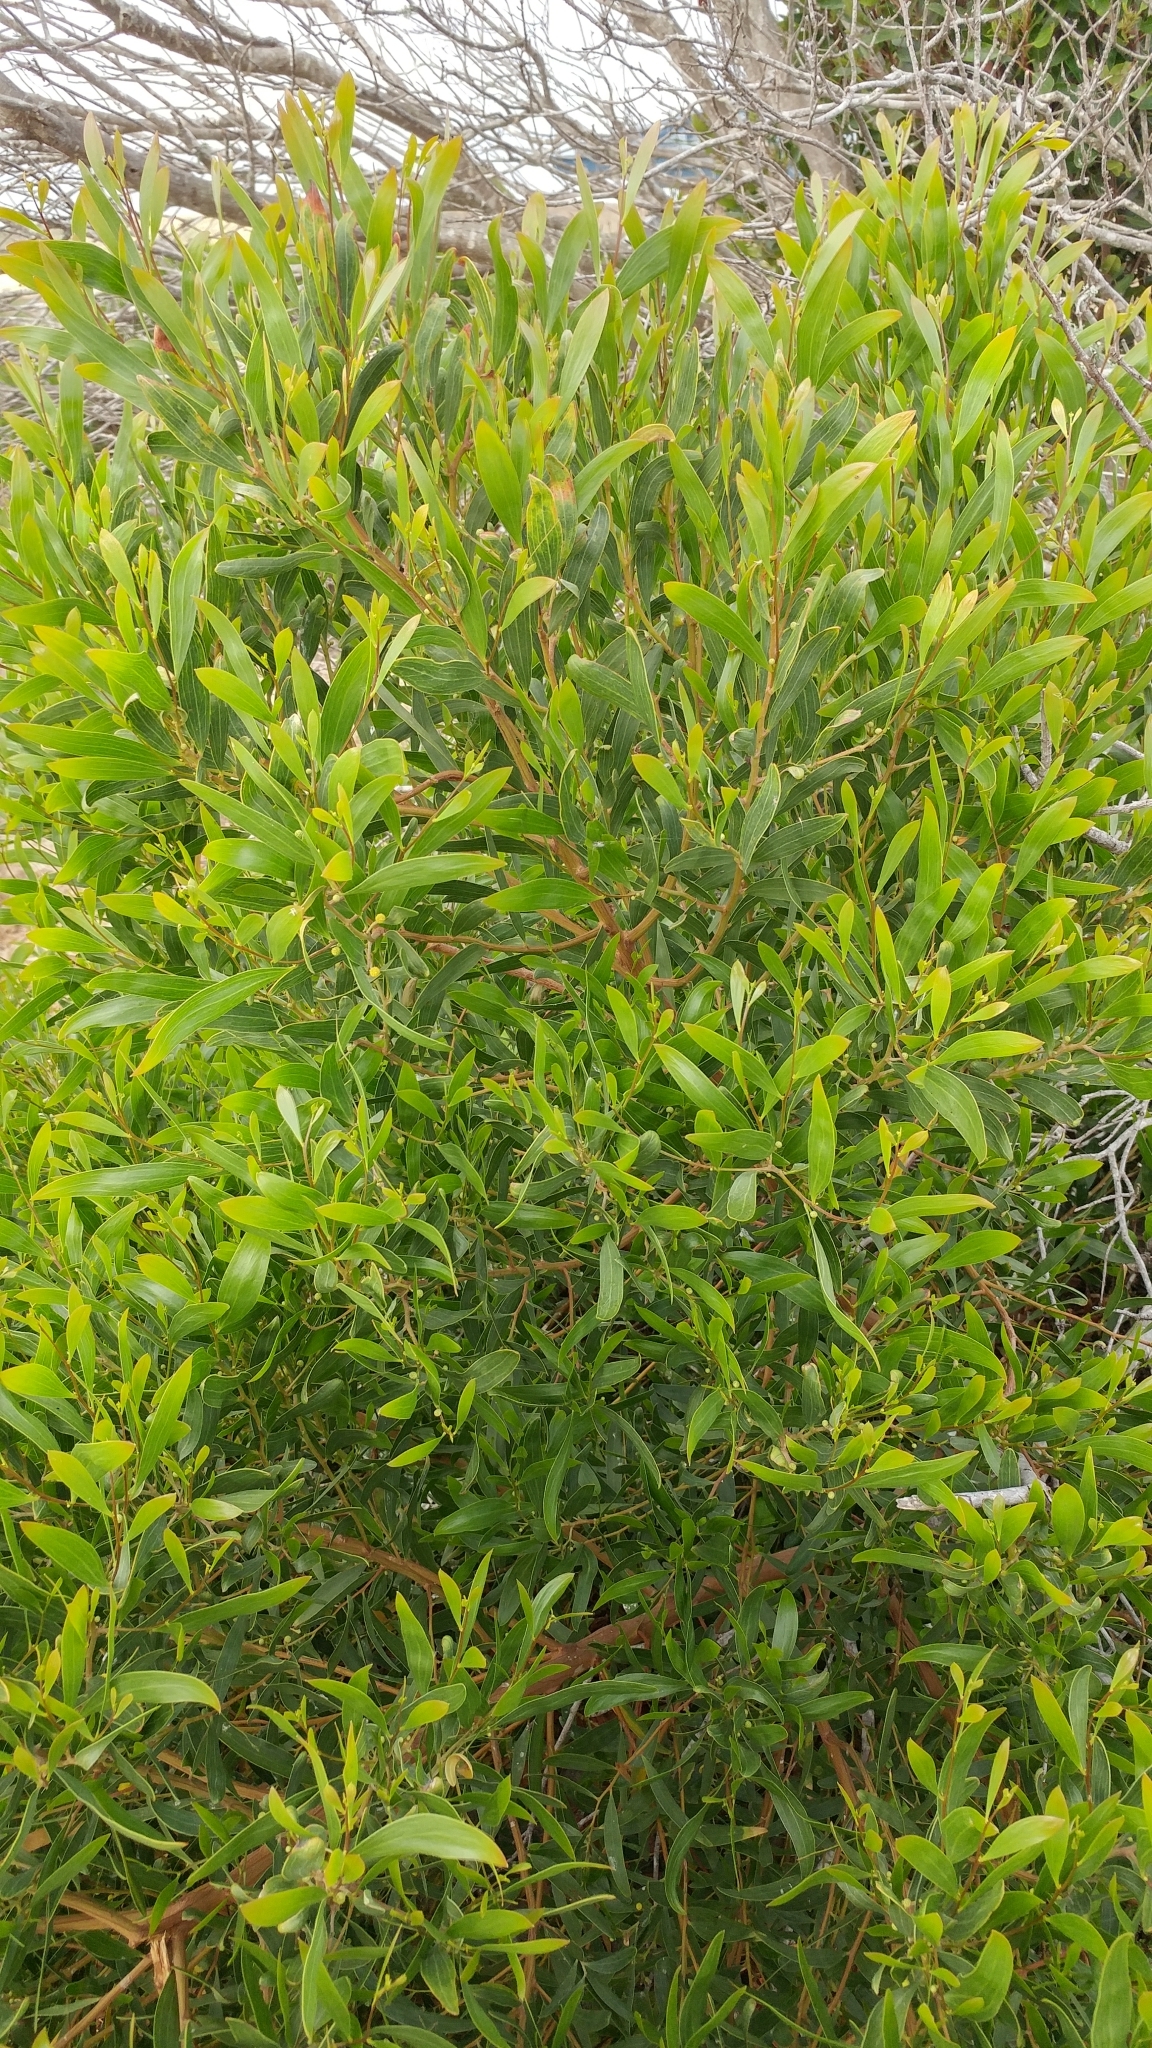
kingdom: Plantae
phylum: Tracheophyta
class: Magnoliopsida
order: Fabales
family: Fabaceae
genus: Acacia
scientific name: Acacia cyclops
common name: Coastal wattle
